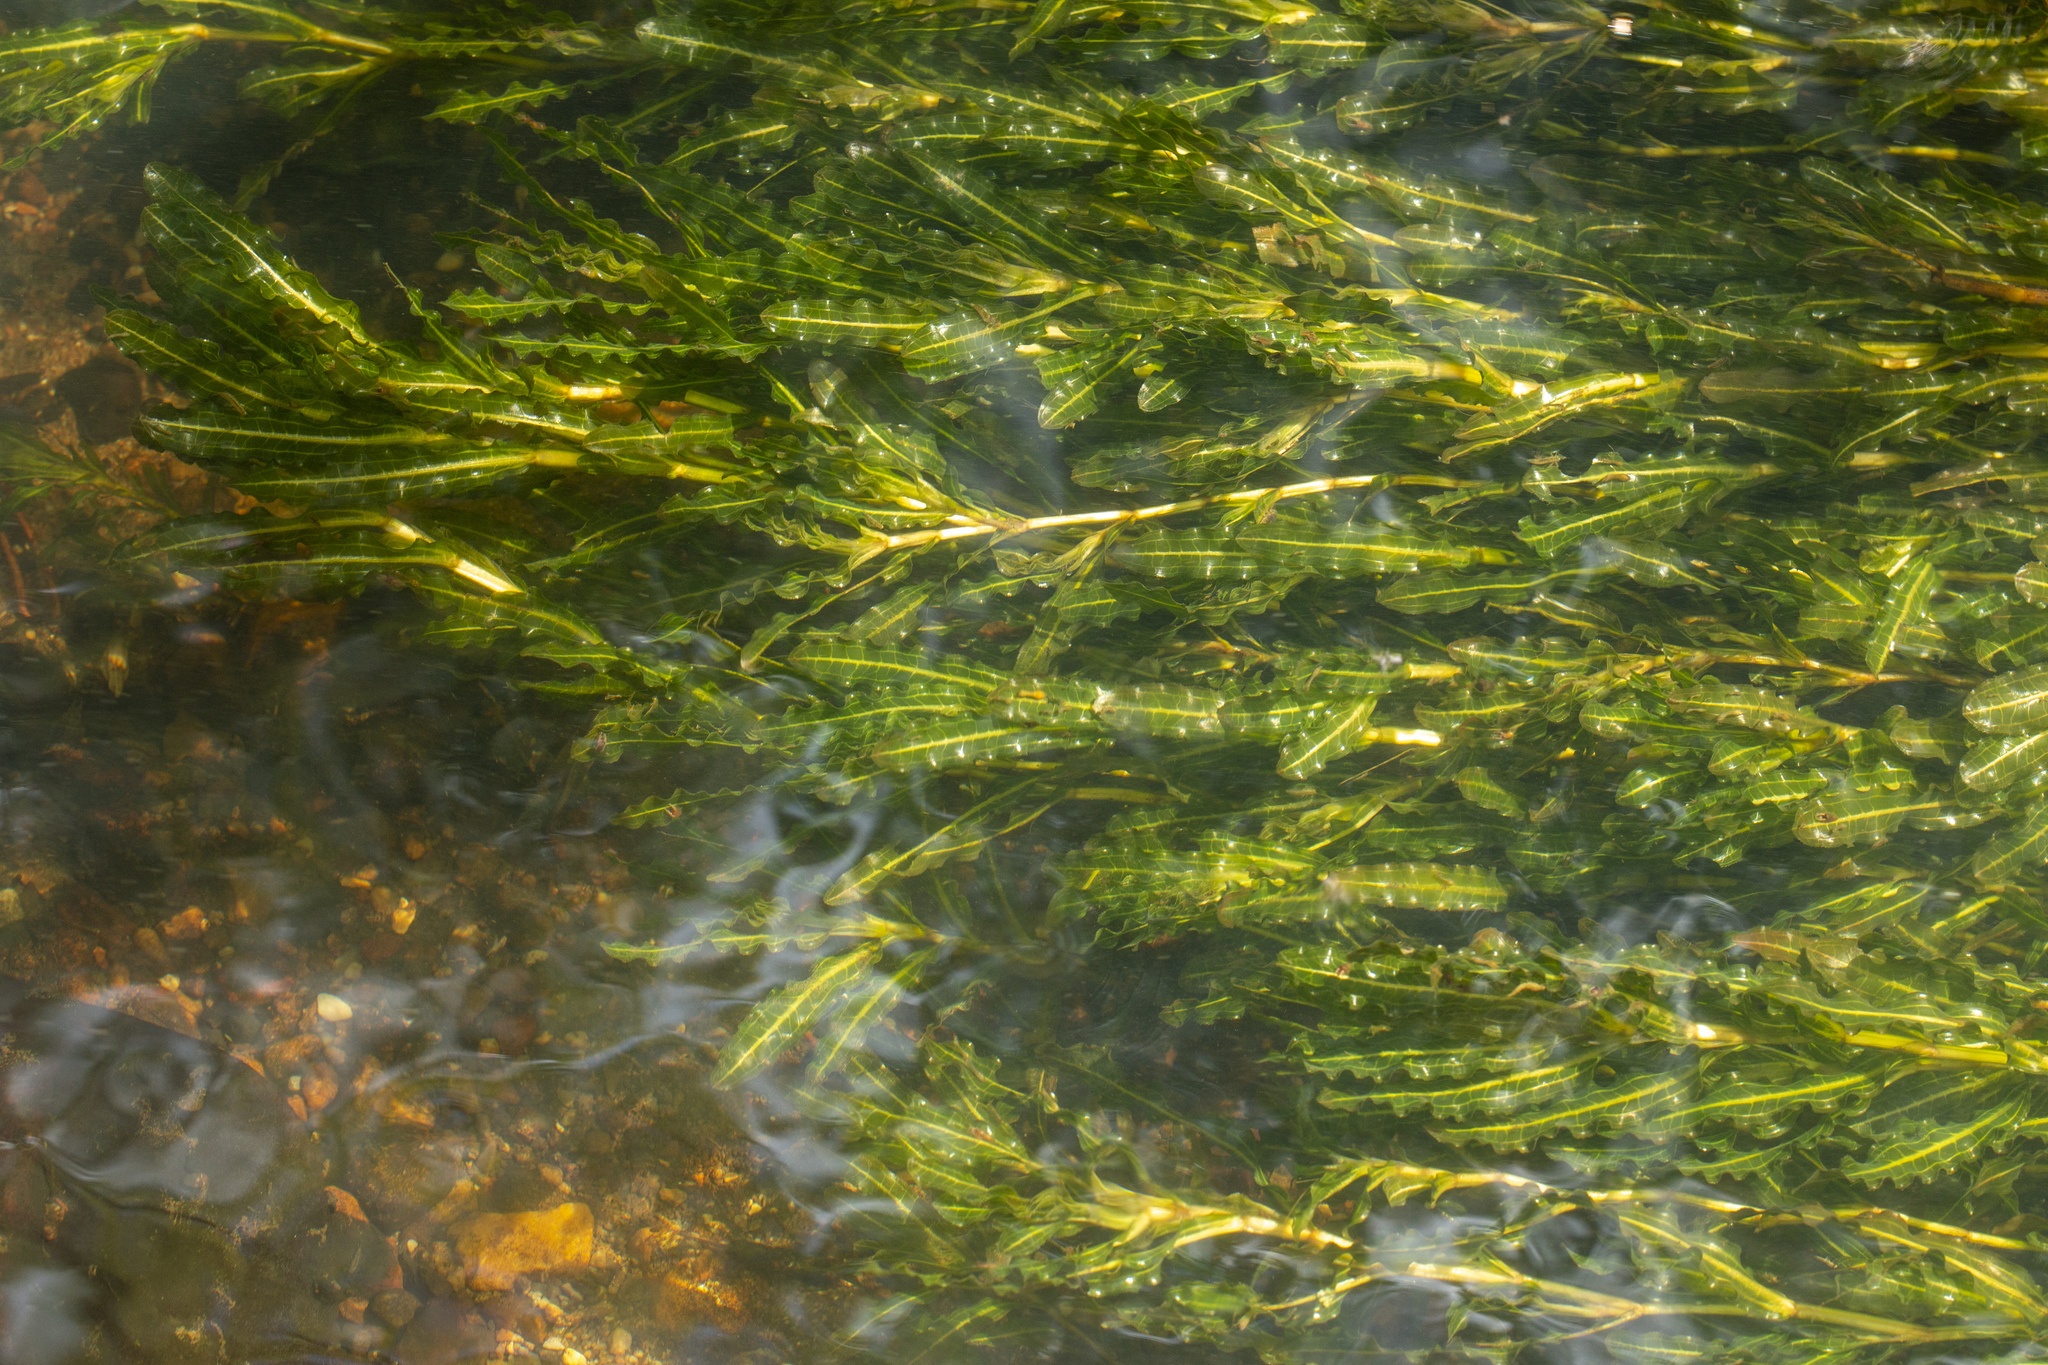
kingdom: Plantae
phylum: Tracheophyta
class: Liliopsida
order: Alismatales
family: Potamogetonaceae
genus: Potamogeton
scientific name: Potamogeton crispus
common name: Curled pondweed
